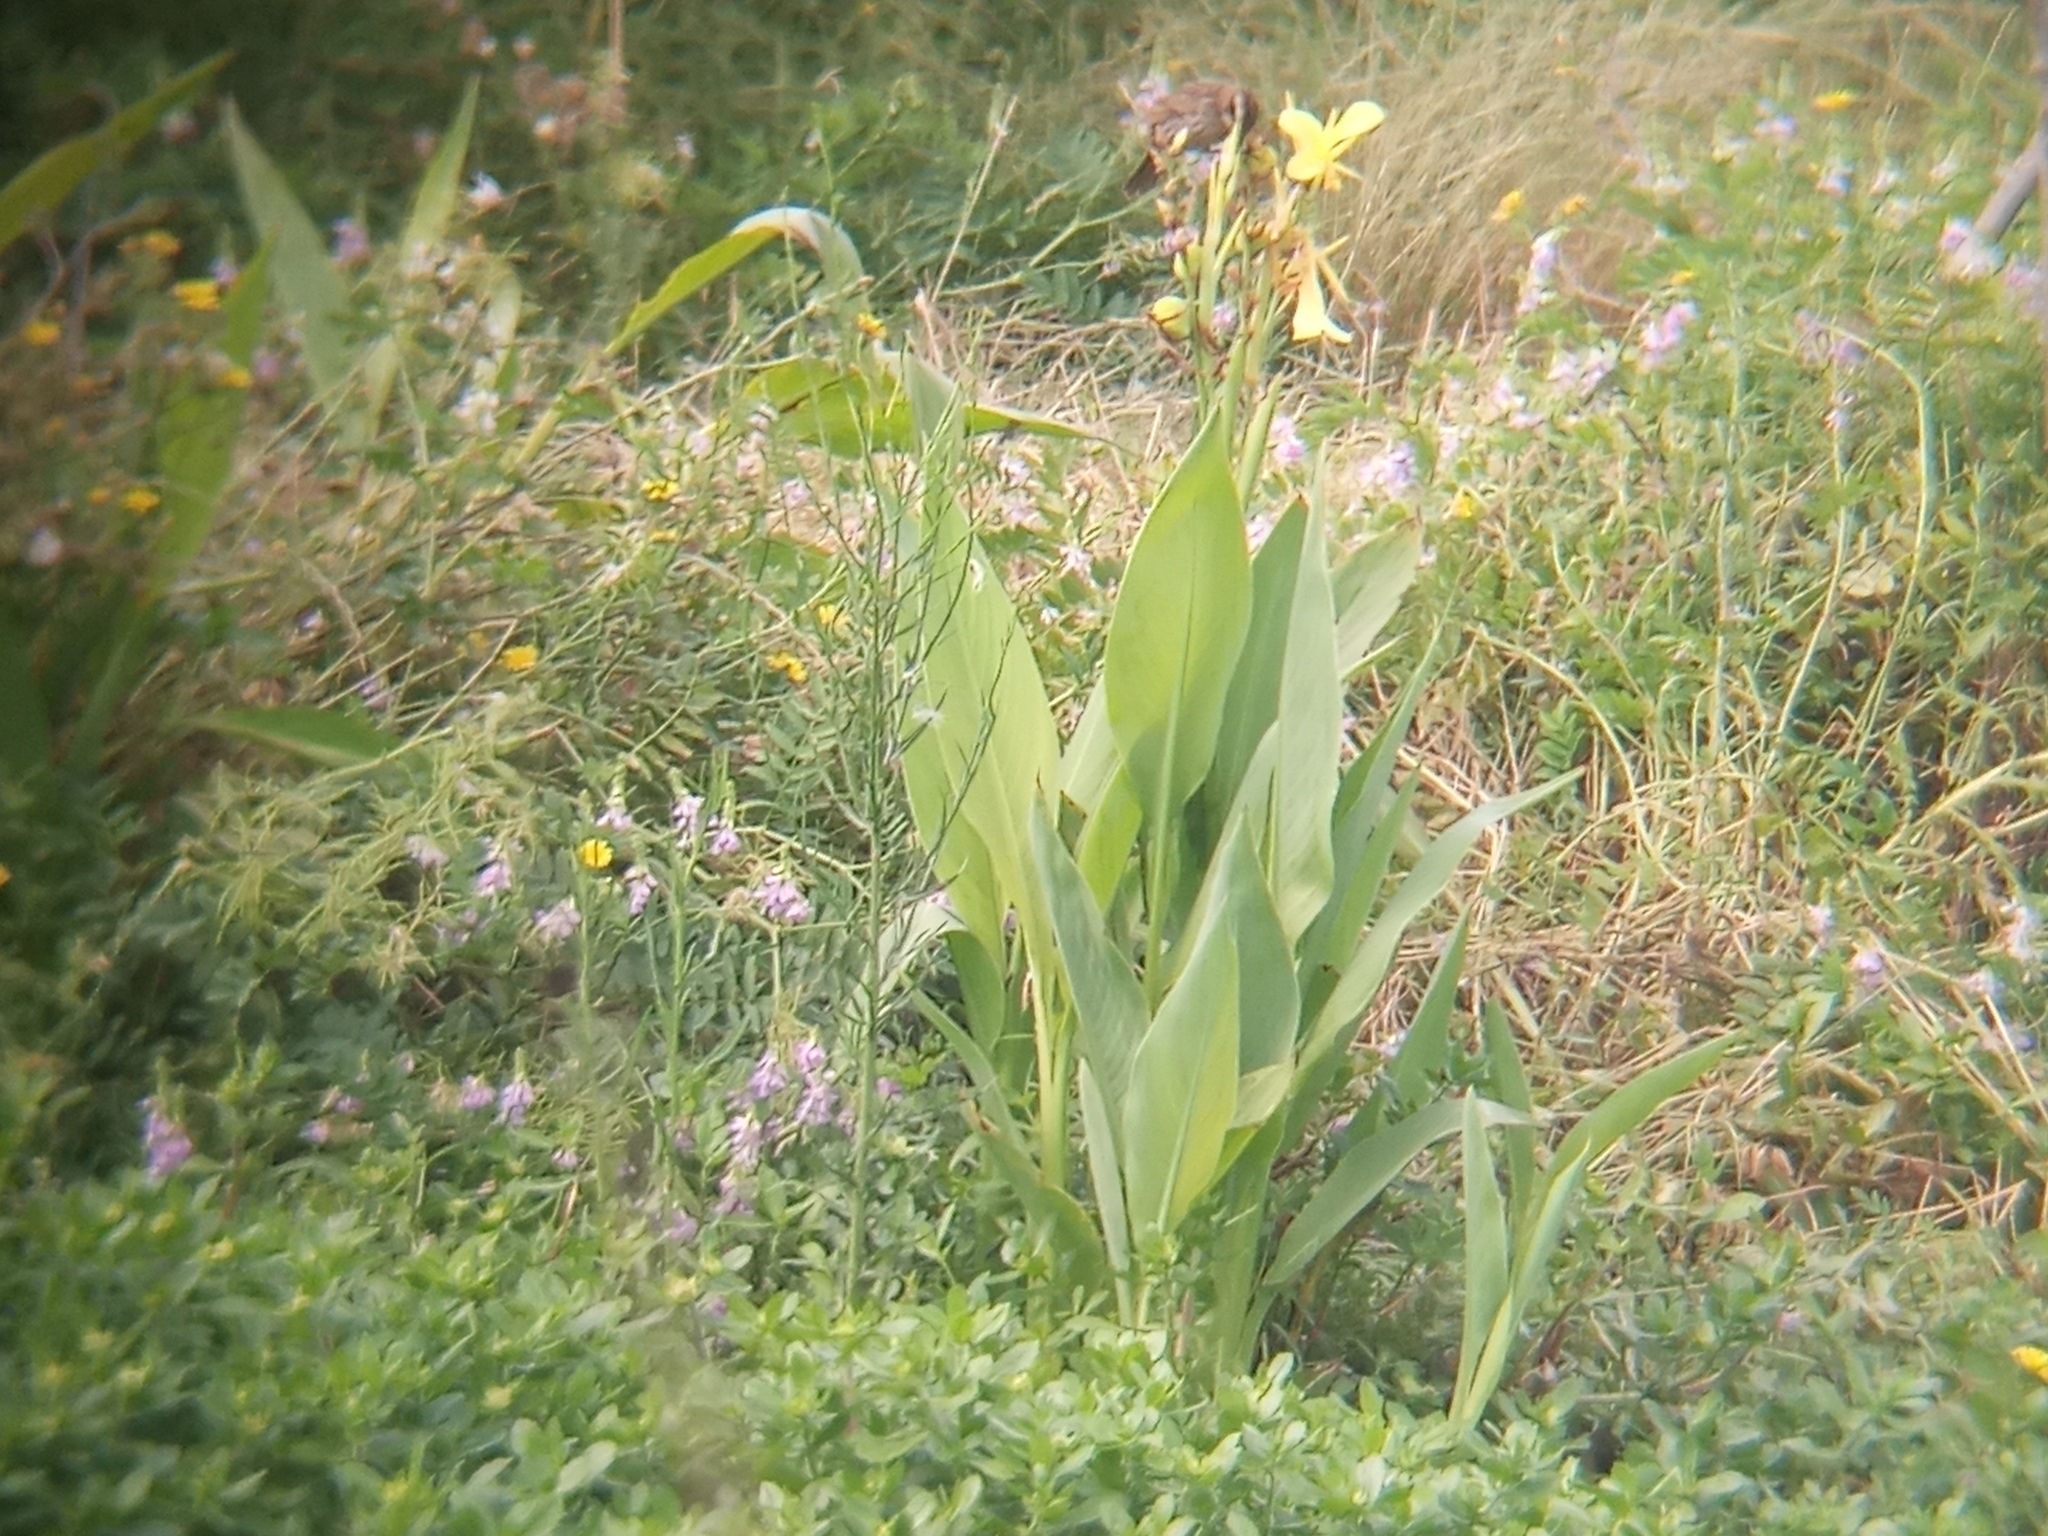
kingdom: Plantae
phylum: Tracheophyta
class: Liliopsida
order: Zingiberales
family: Cannaceae
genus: Canna
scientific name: Canna glauca
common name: Louisiana canna
